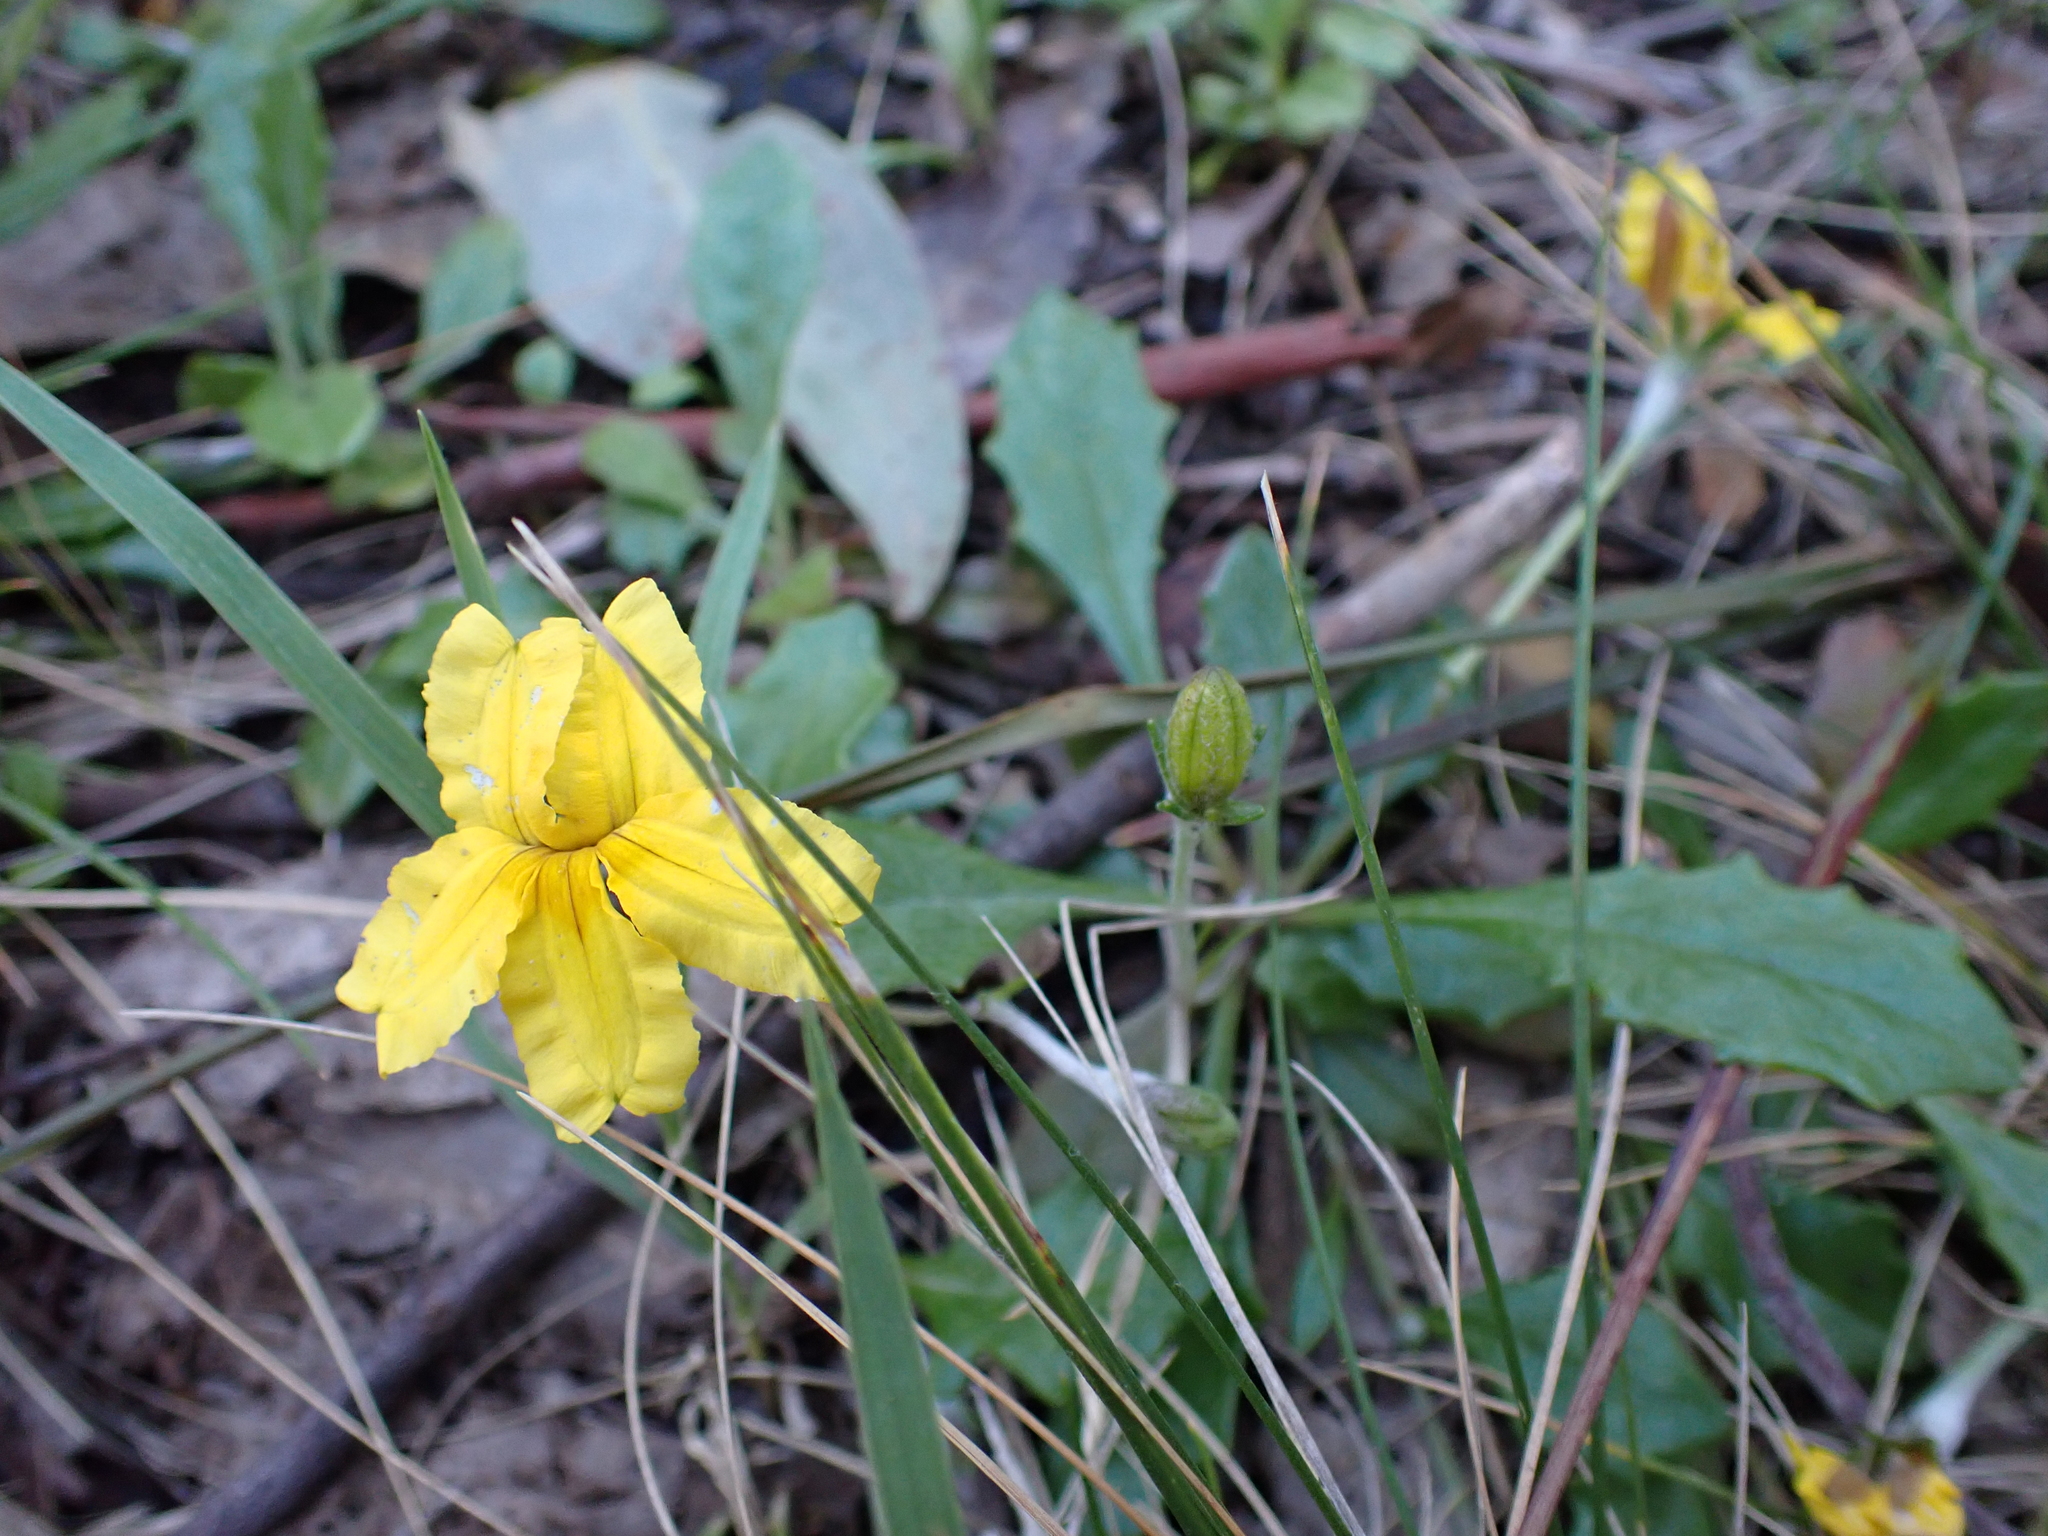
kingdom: Plantae
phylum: Tracheophyta
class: Magnoliopsida
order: Asterales
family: Goodeniaceae
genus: Goodenia
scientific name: Goodenia lanata
